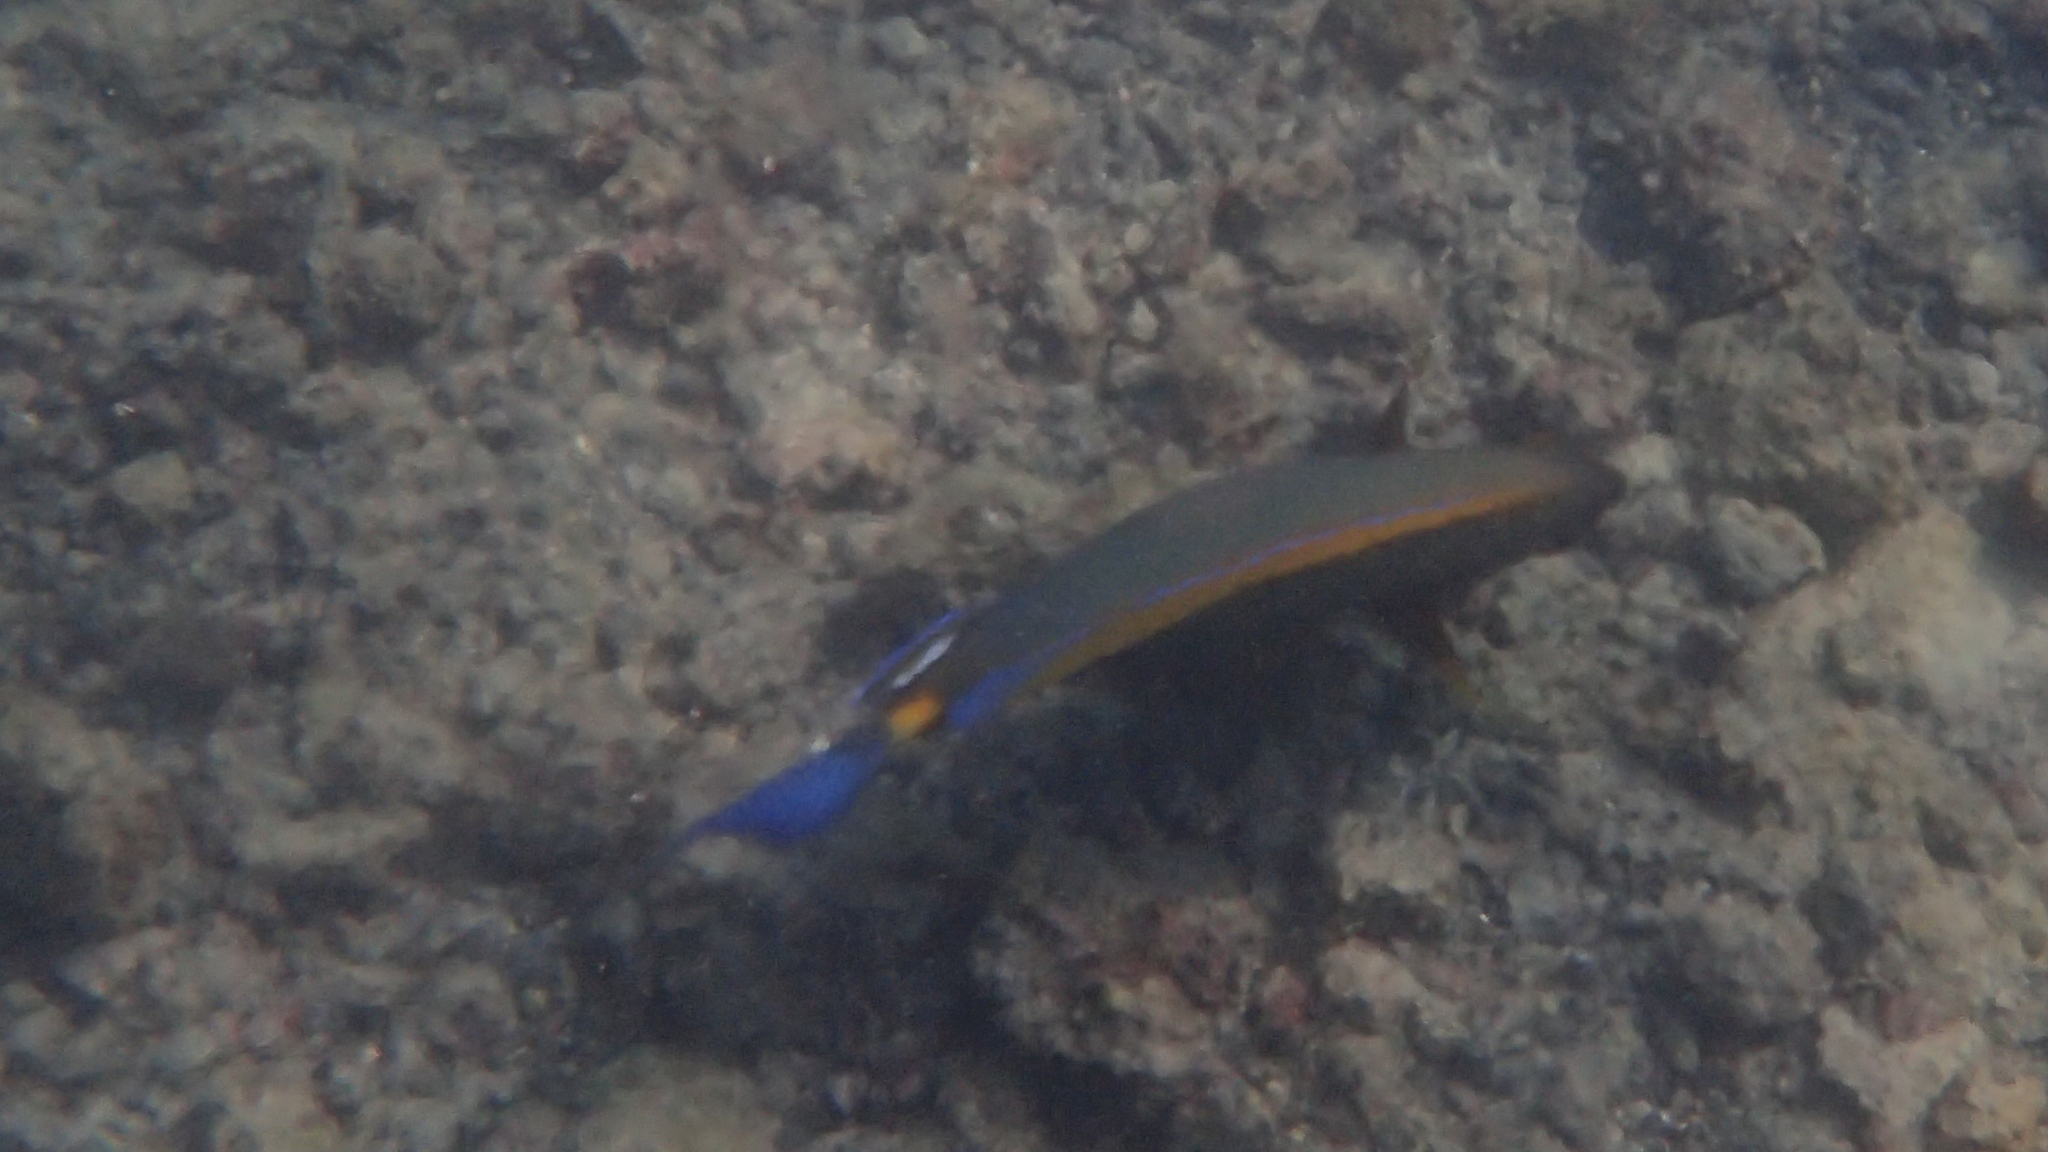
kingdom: Animalia
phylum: Chordata
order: Perciformes
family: Acanthuridae
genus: Acanthurus
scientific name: Acanthurus dussumieri
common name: Dussumier's surgeonfish
